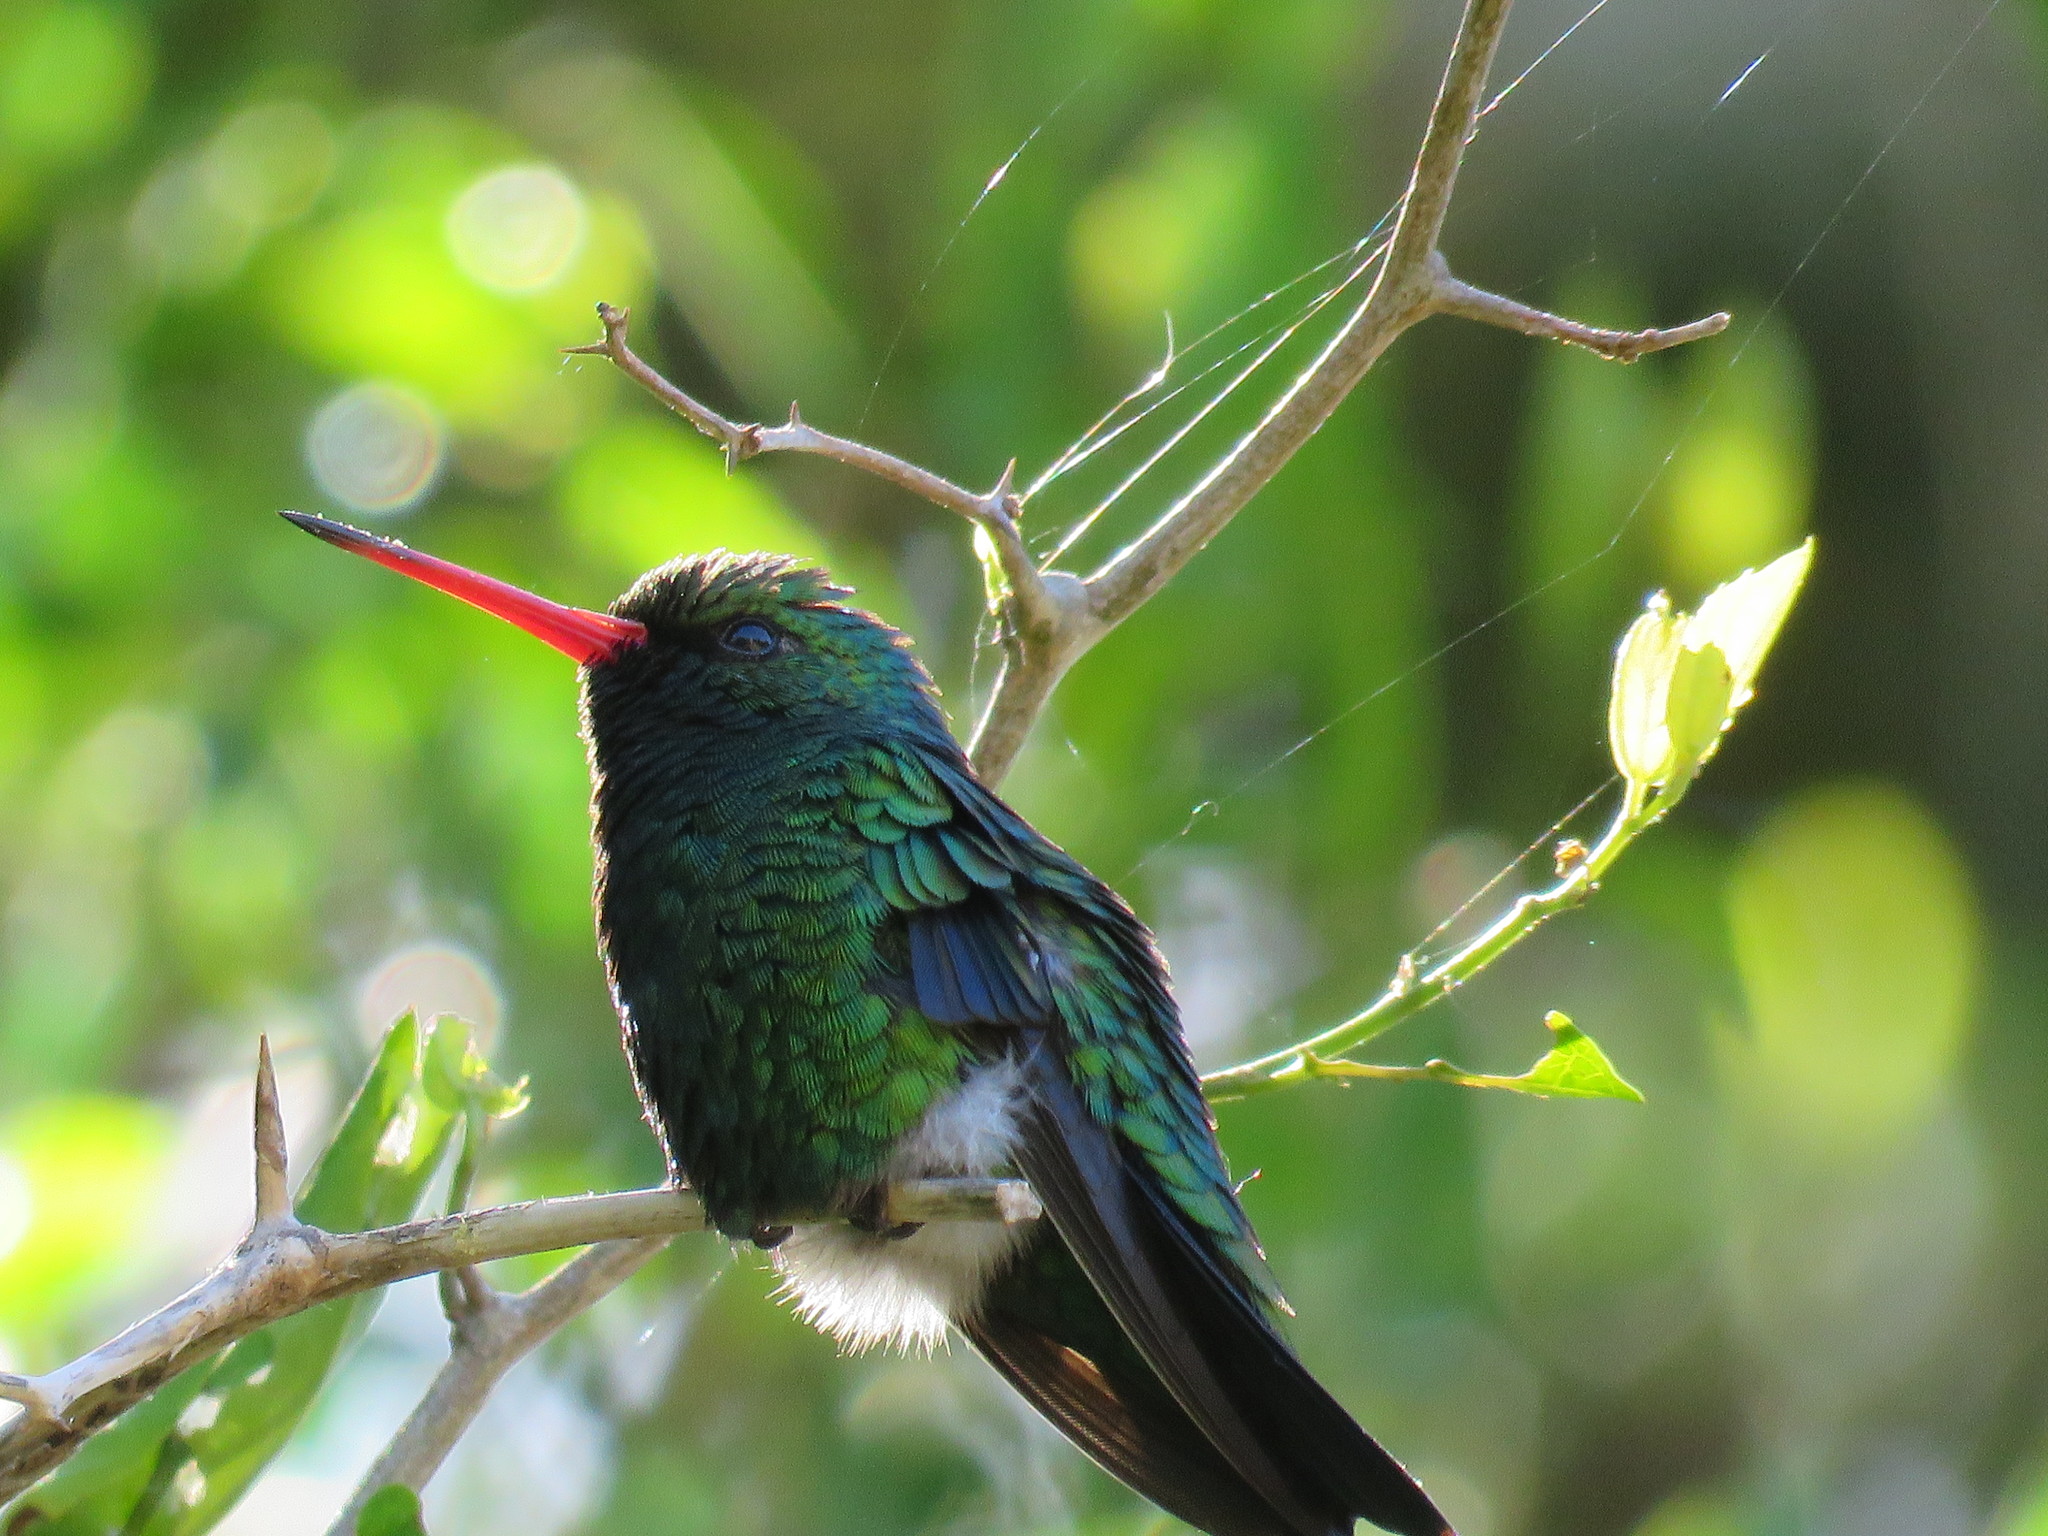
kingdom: Animalia
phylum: Chordata
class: Aves
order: Apodiformes
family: Trochilidae
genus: Chlorostilbon
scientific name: Chlorostilbon lucidus
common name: Glittering-bellied emerald
